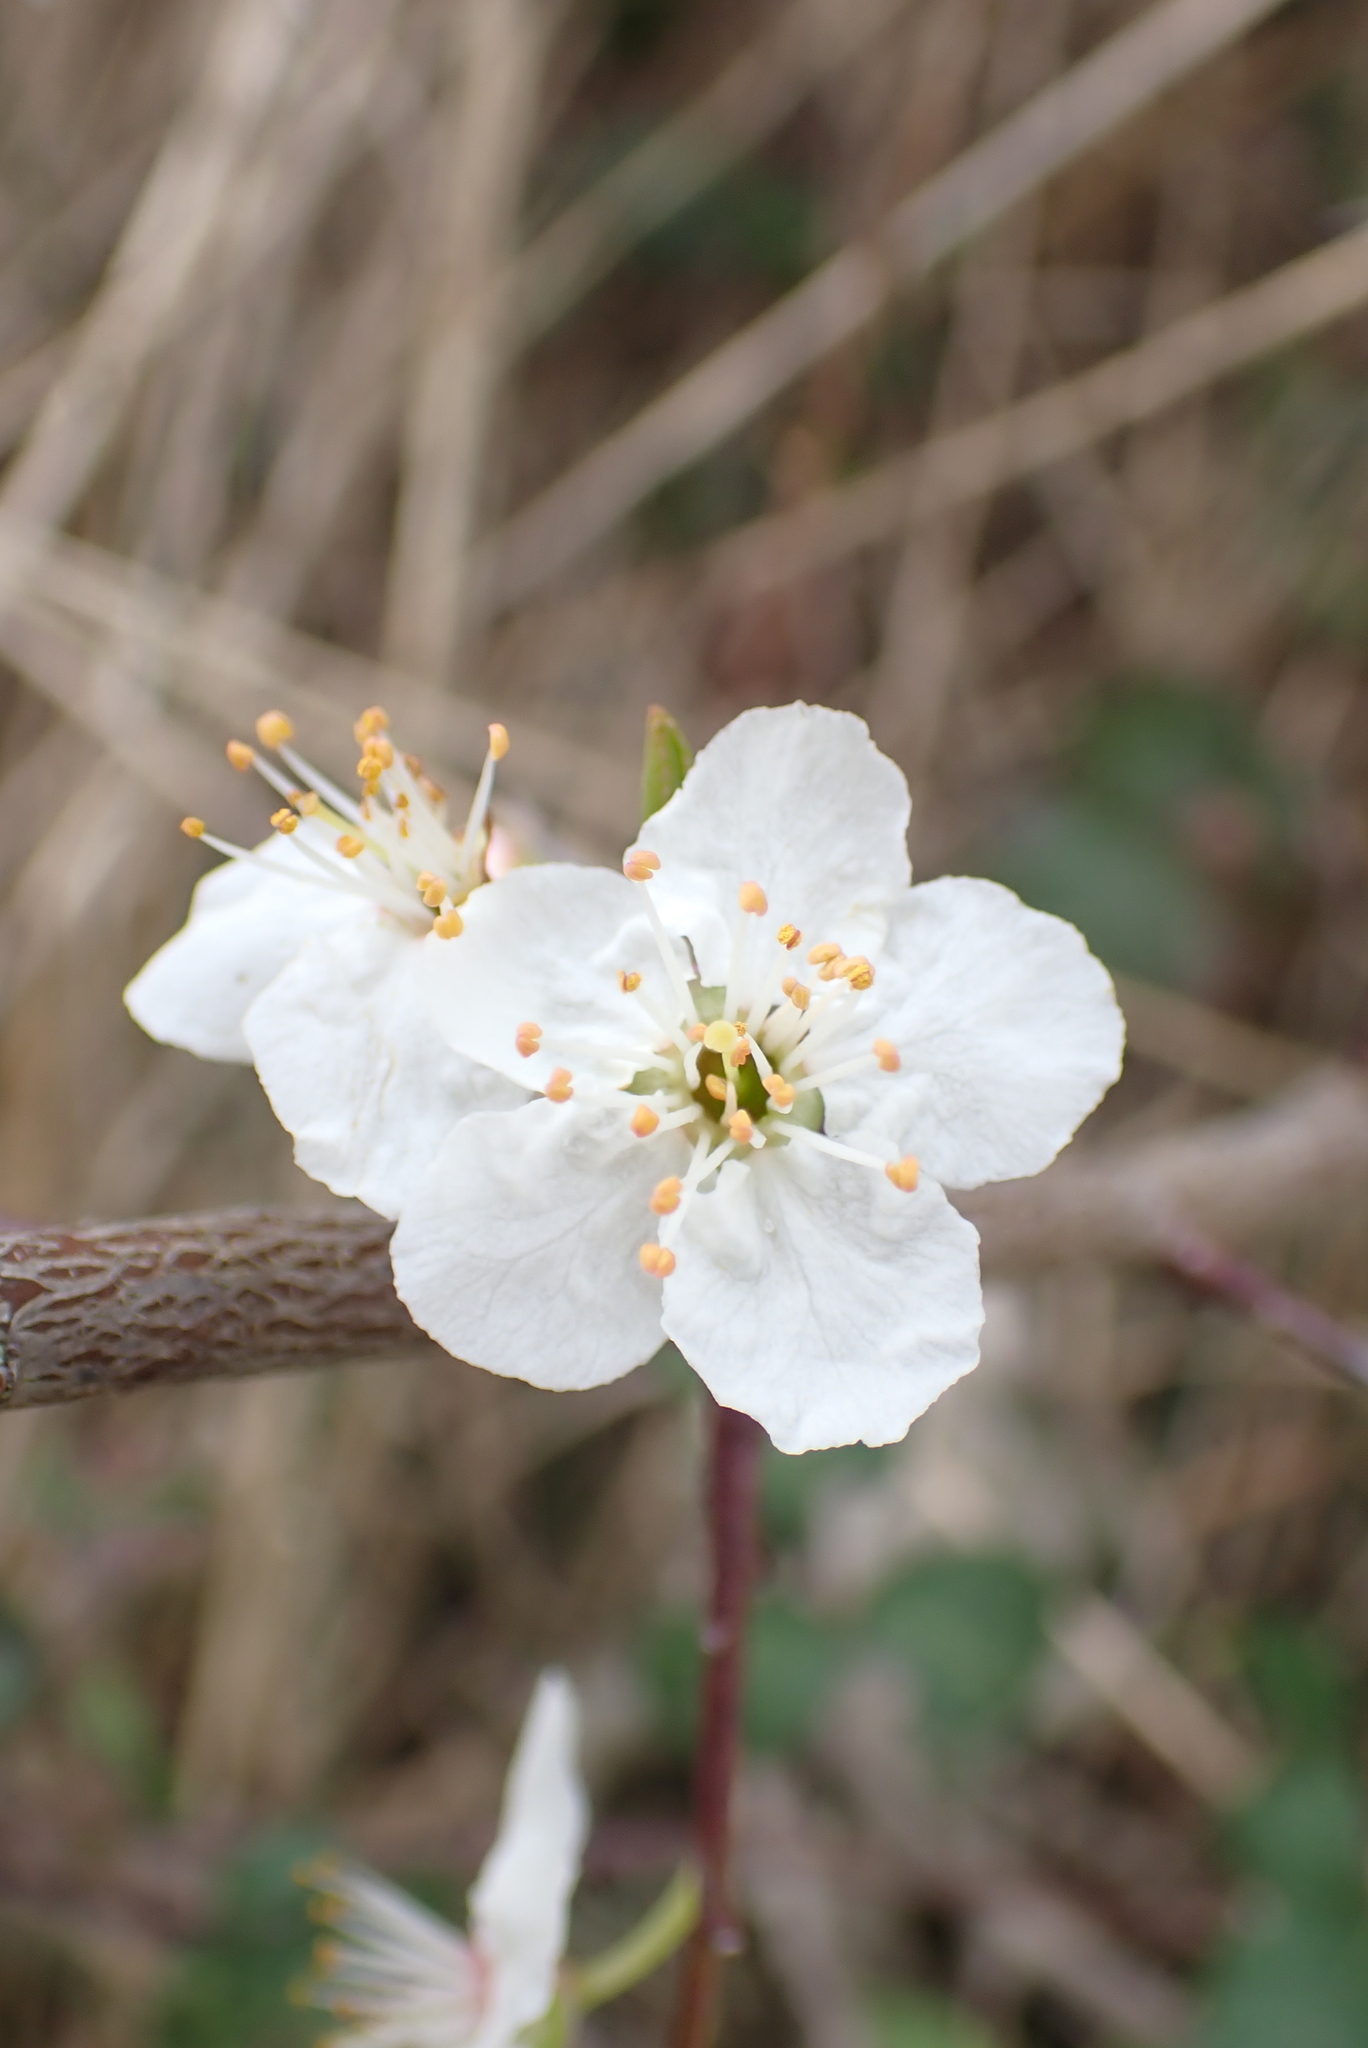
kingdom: Plantae
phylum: Tracheophyta
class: Magnoliopsida
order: Rosales
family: Rosaceae
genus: Prunus
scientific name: Prunus cerasifera
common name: Cherry plum
